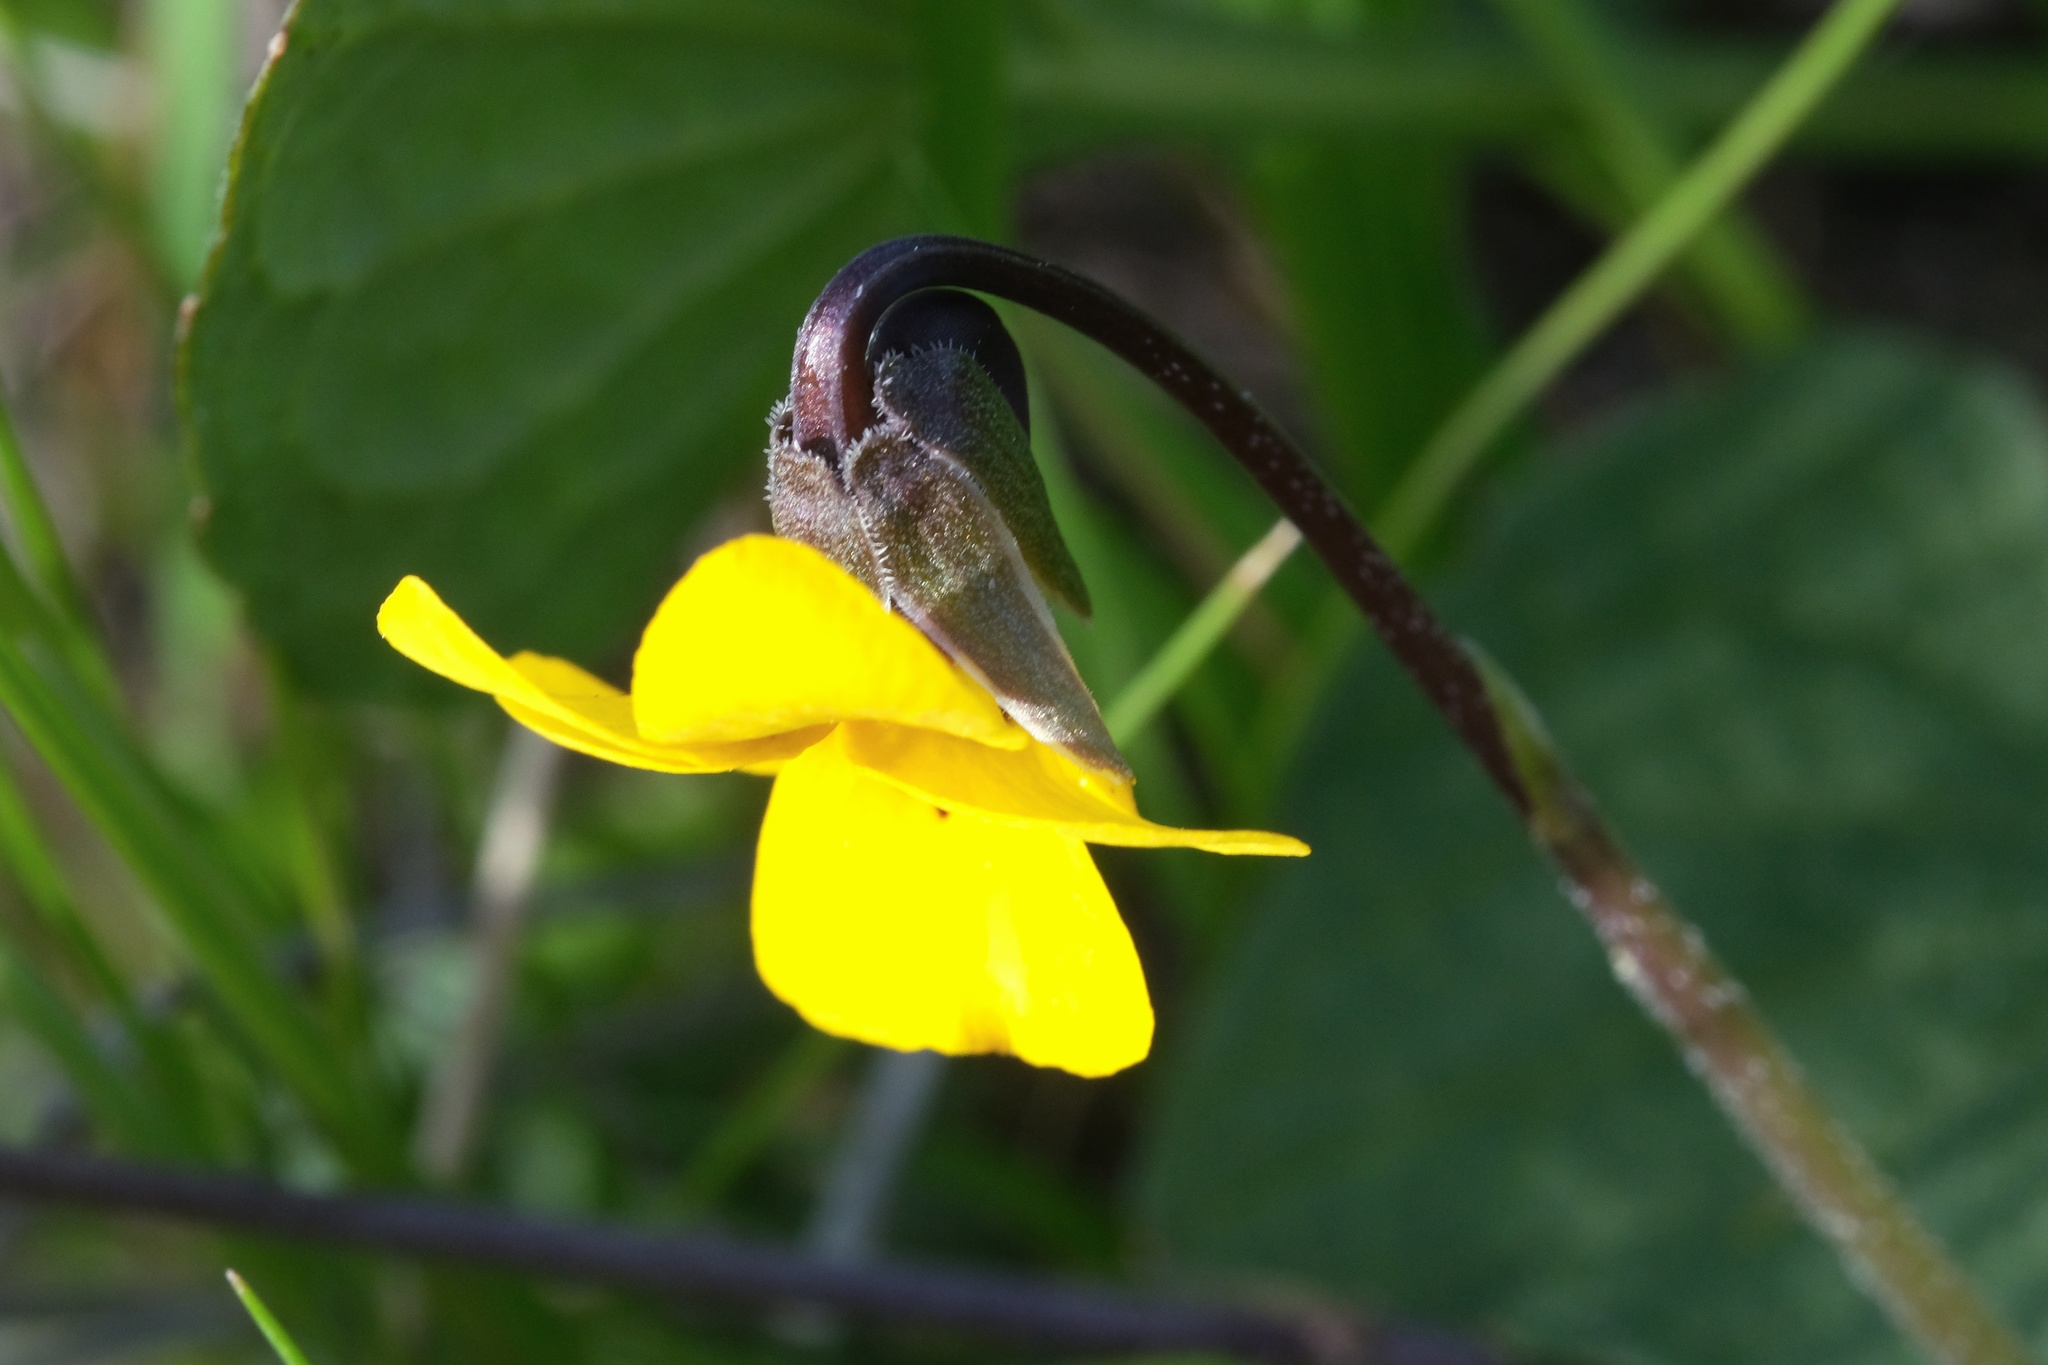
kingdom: Plantae
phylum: Tracheophyta
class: Magnoliopsida
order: Malpighiales
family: Violaceae
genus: Viola
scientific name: Viola pedunculata
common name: California golden violet
